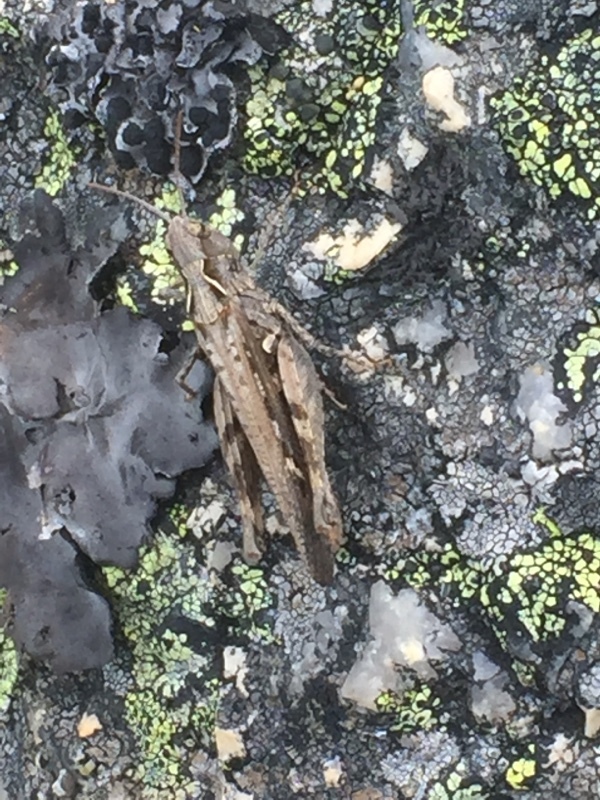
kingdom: Animalia
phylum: Arthropoda
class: Insecta
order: Orthoptera
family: Acrididae
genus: Chorthippus
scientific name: Chorthippus jacobsi
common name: Iberian field grasshopper
